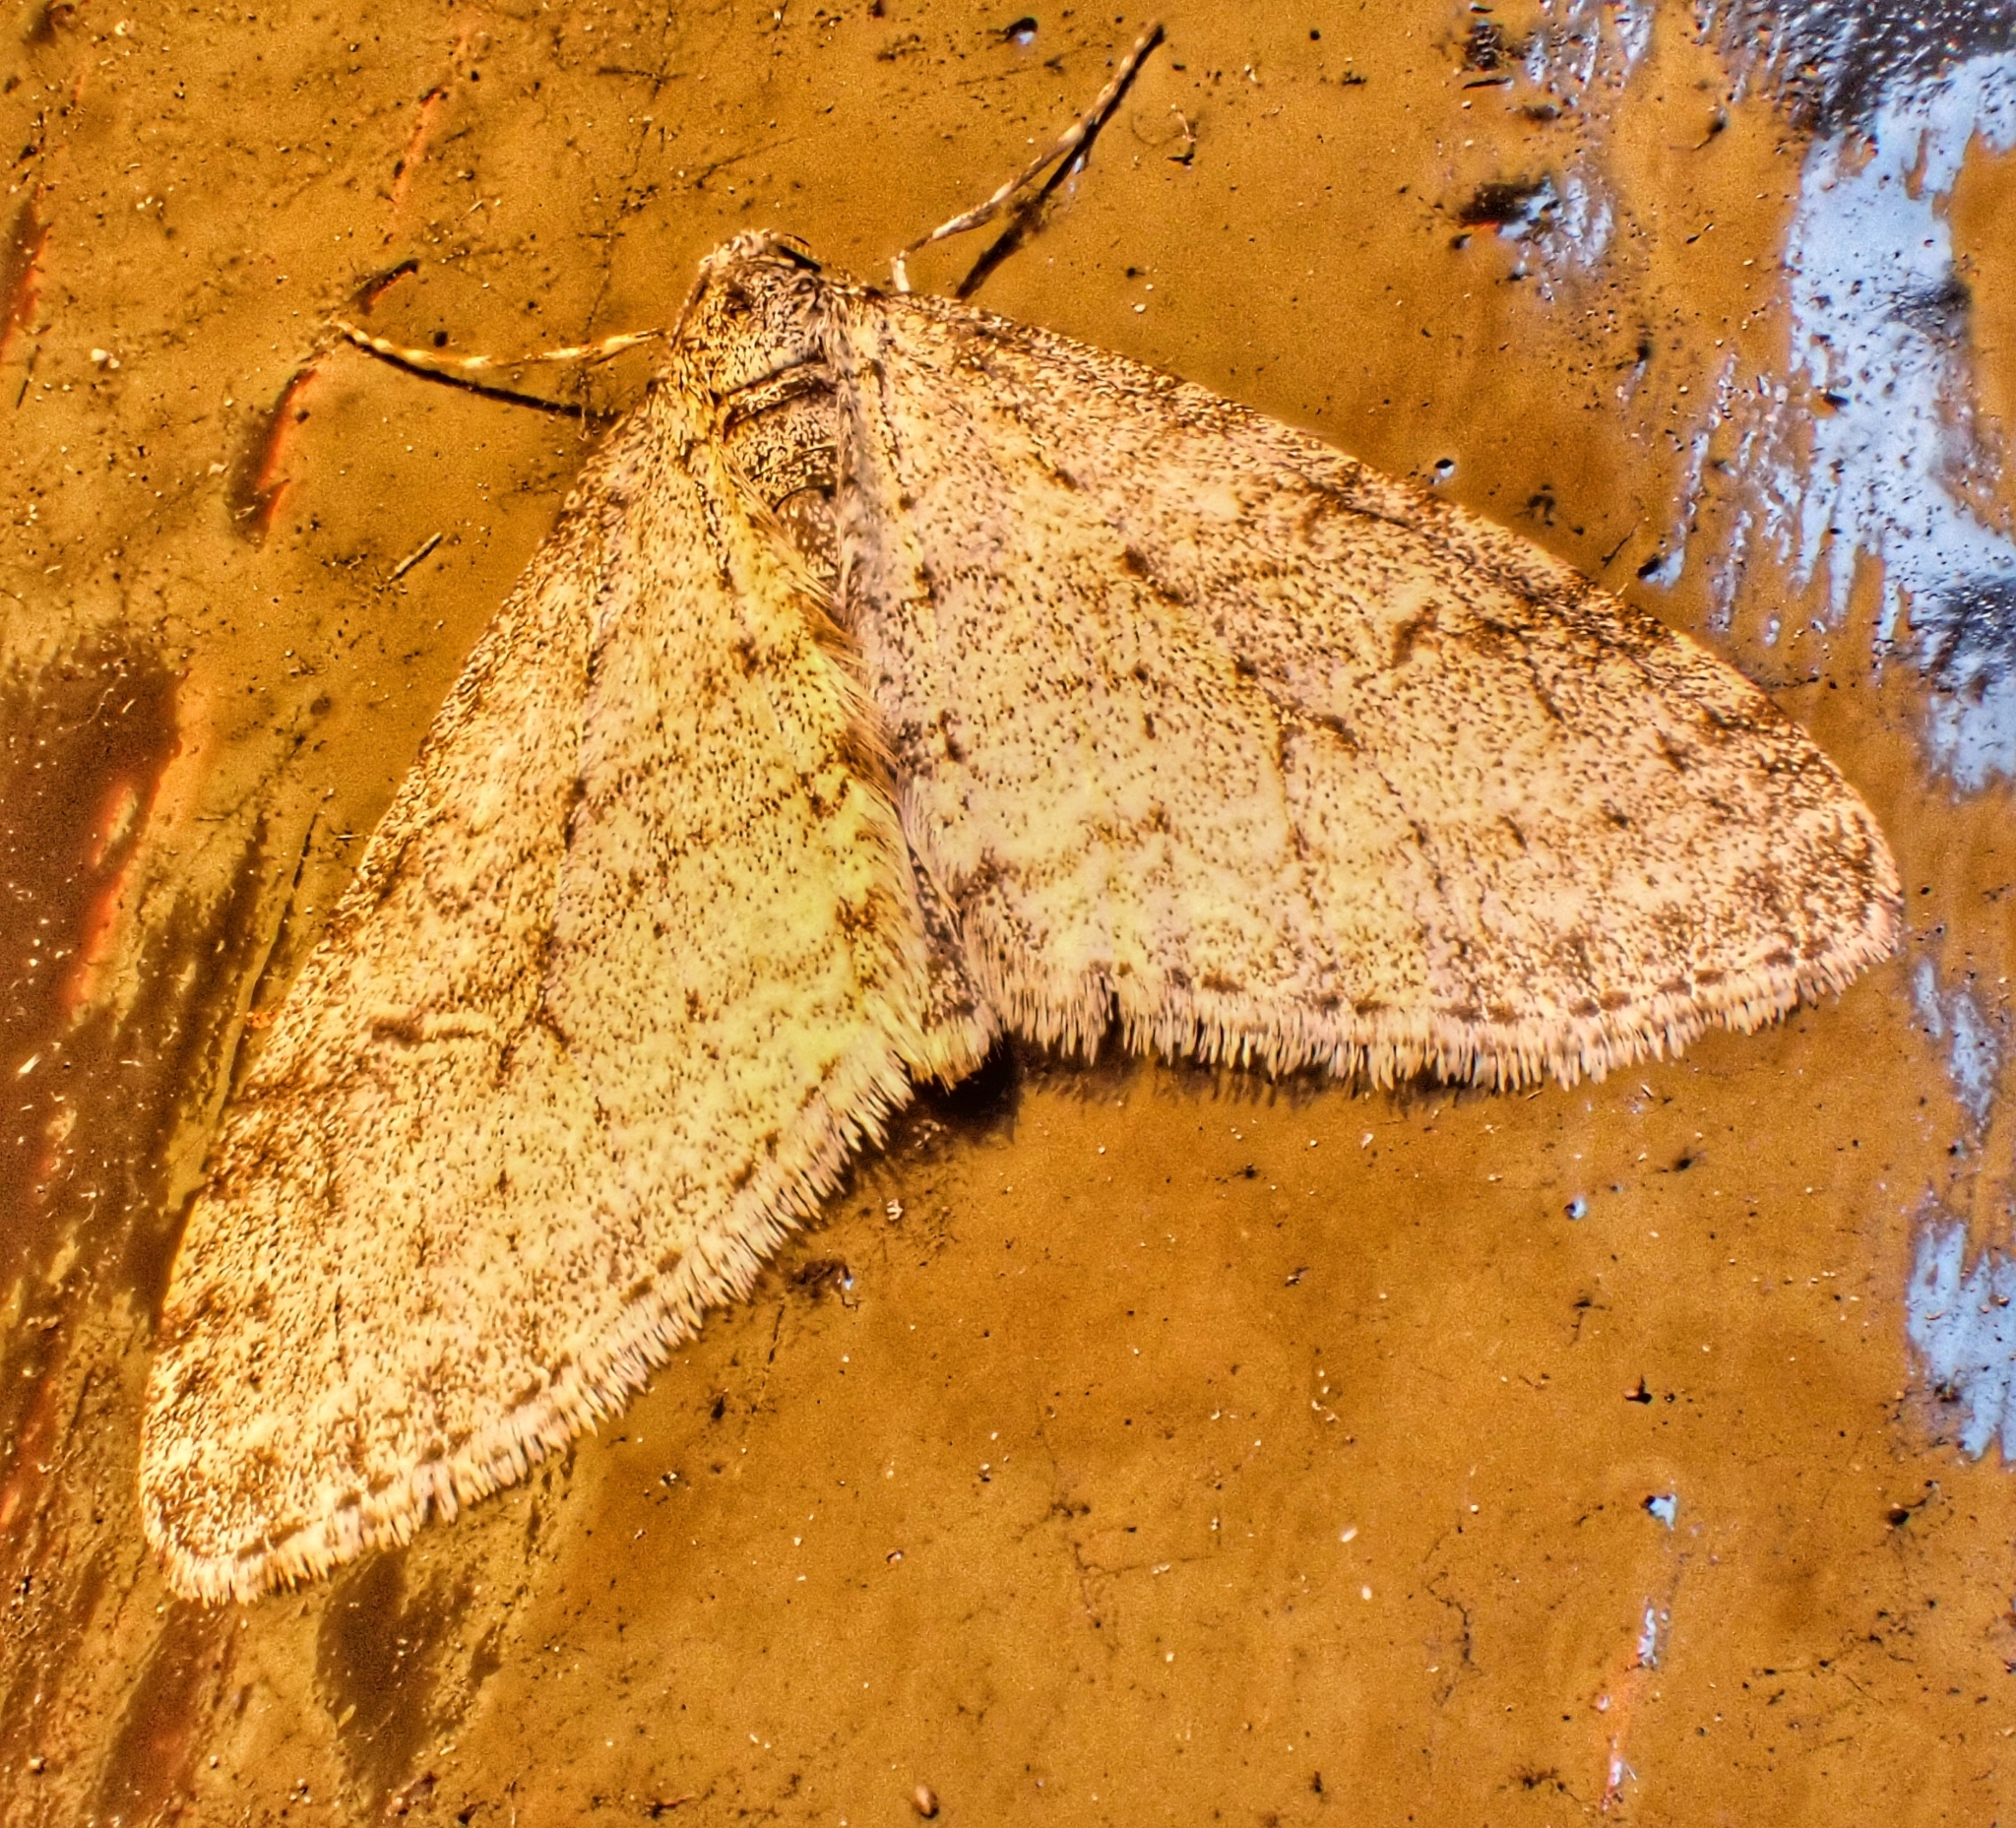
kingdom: Animalia
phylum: Arthropoda
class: Insecta
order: Lepidoptera
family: Geometridae
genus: Trichopteryx
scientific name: Trichopteryx carpinata
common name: Early tooth-striped
